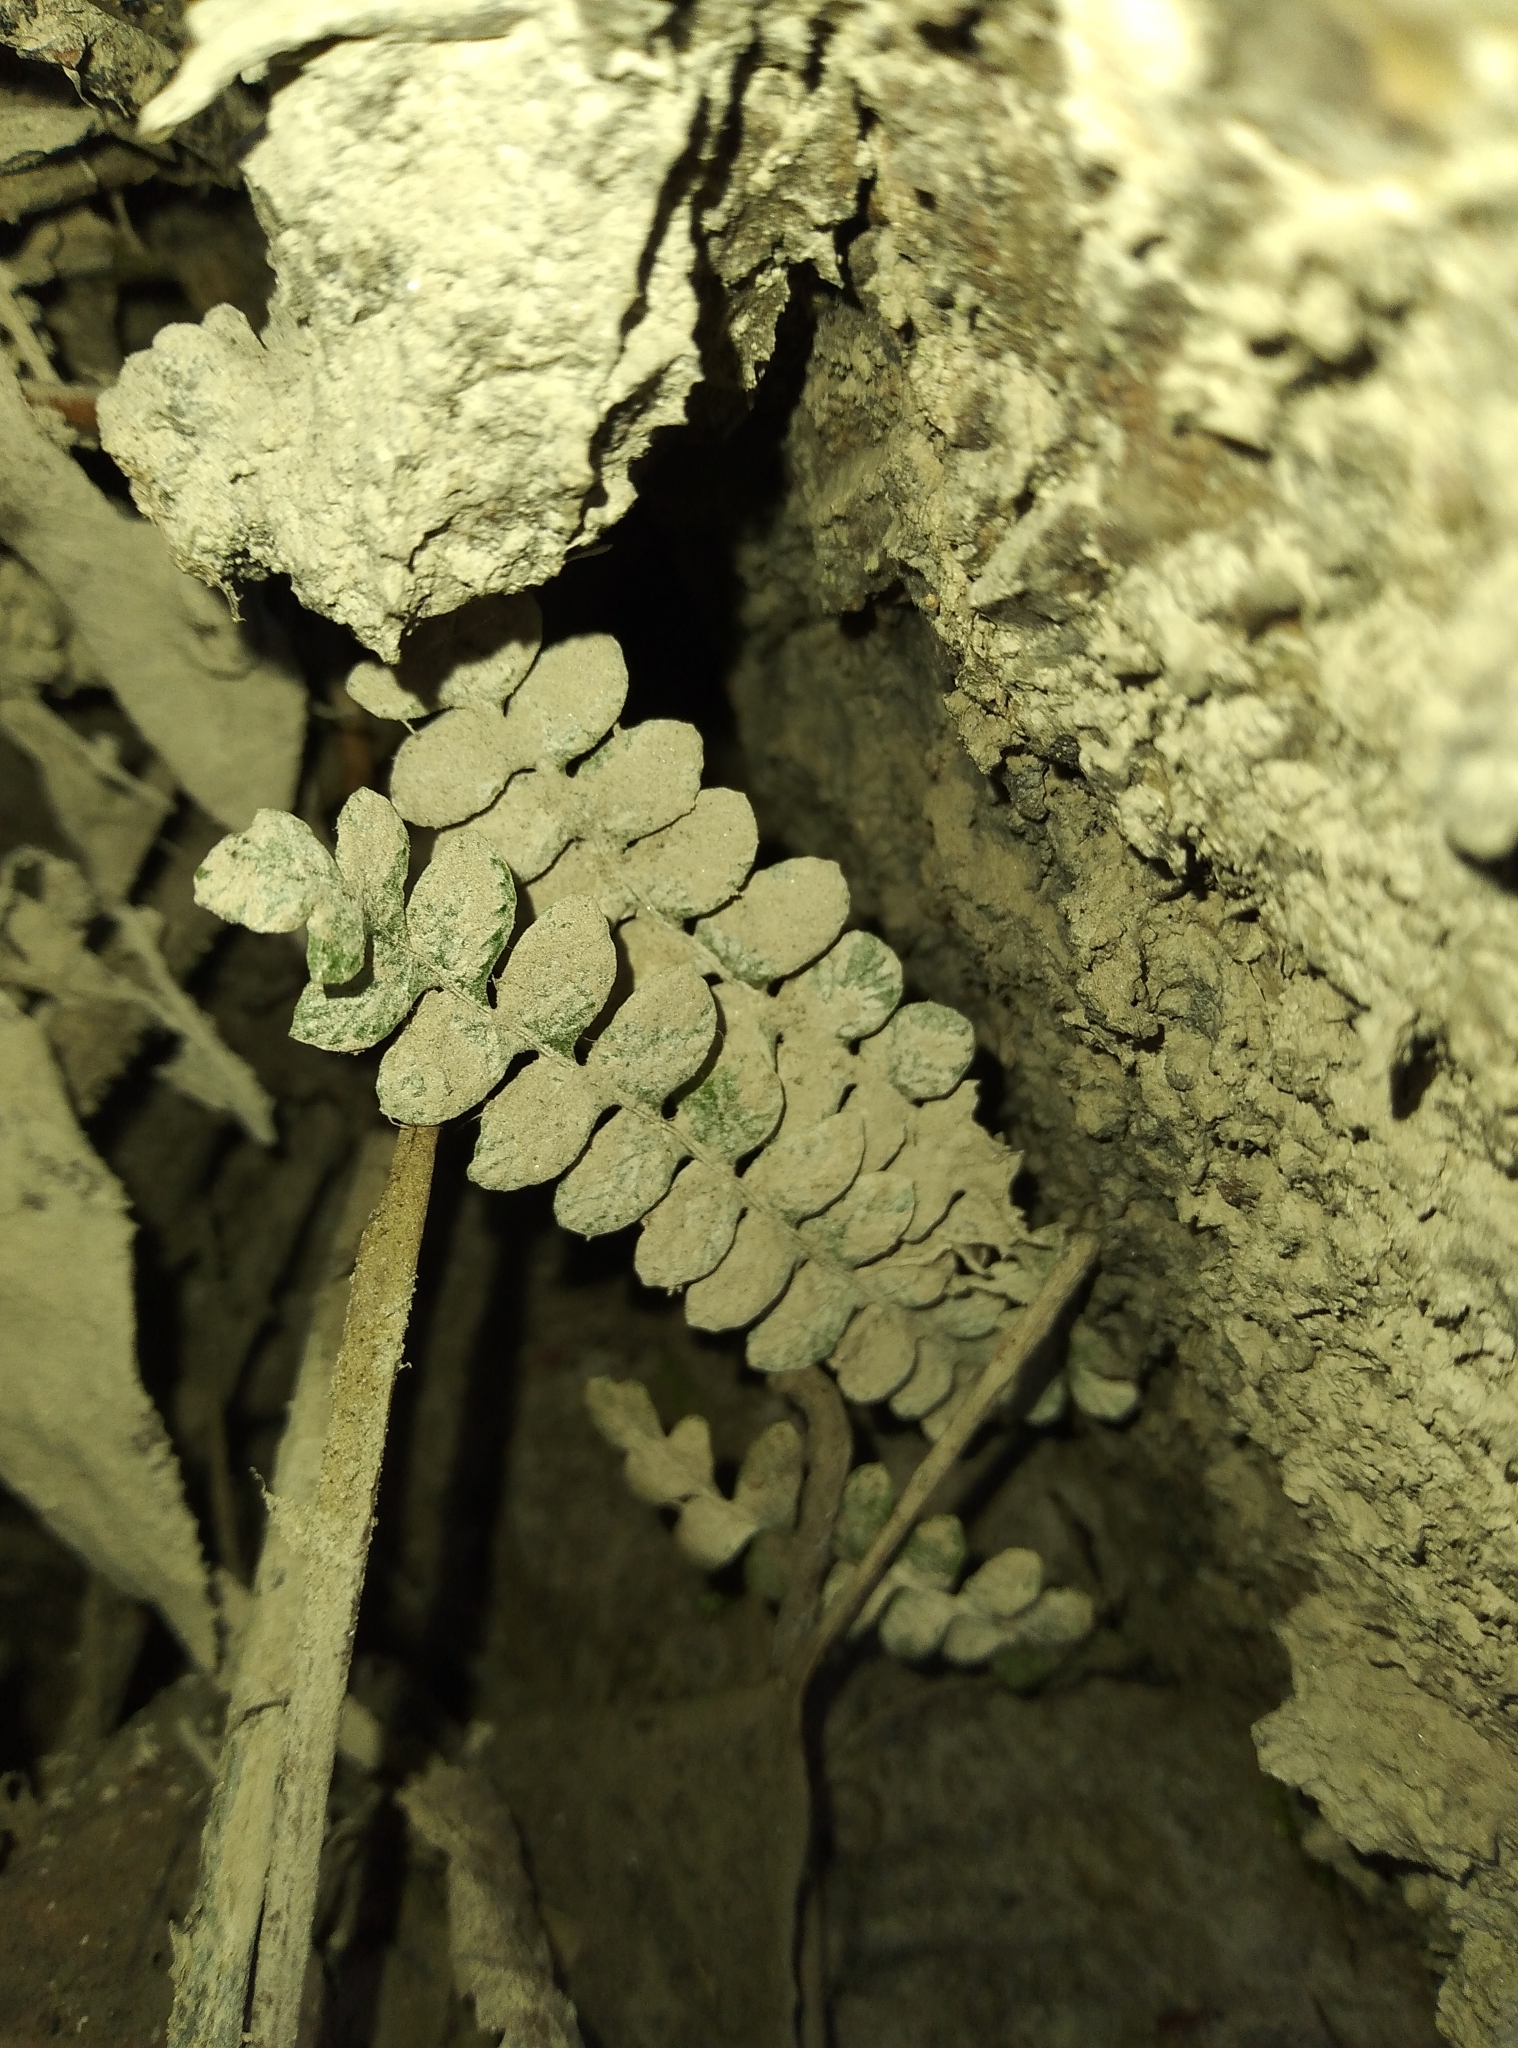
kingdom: Plantae
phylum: Tracheophyta
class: Polypodiopsida
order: Polypodiales
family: Blechnaceae
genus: Austroblechnum
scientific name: Austroblechnum penna-marina
